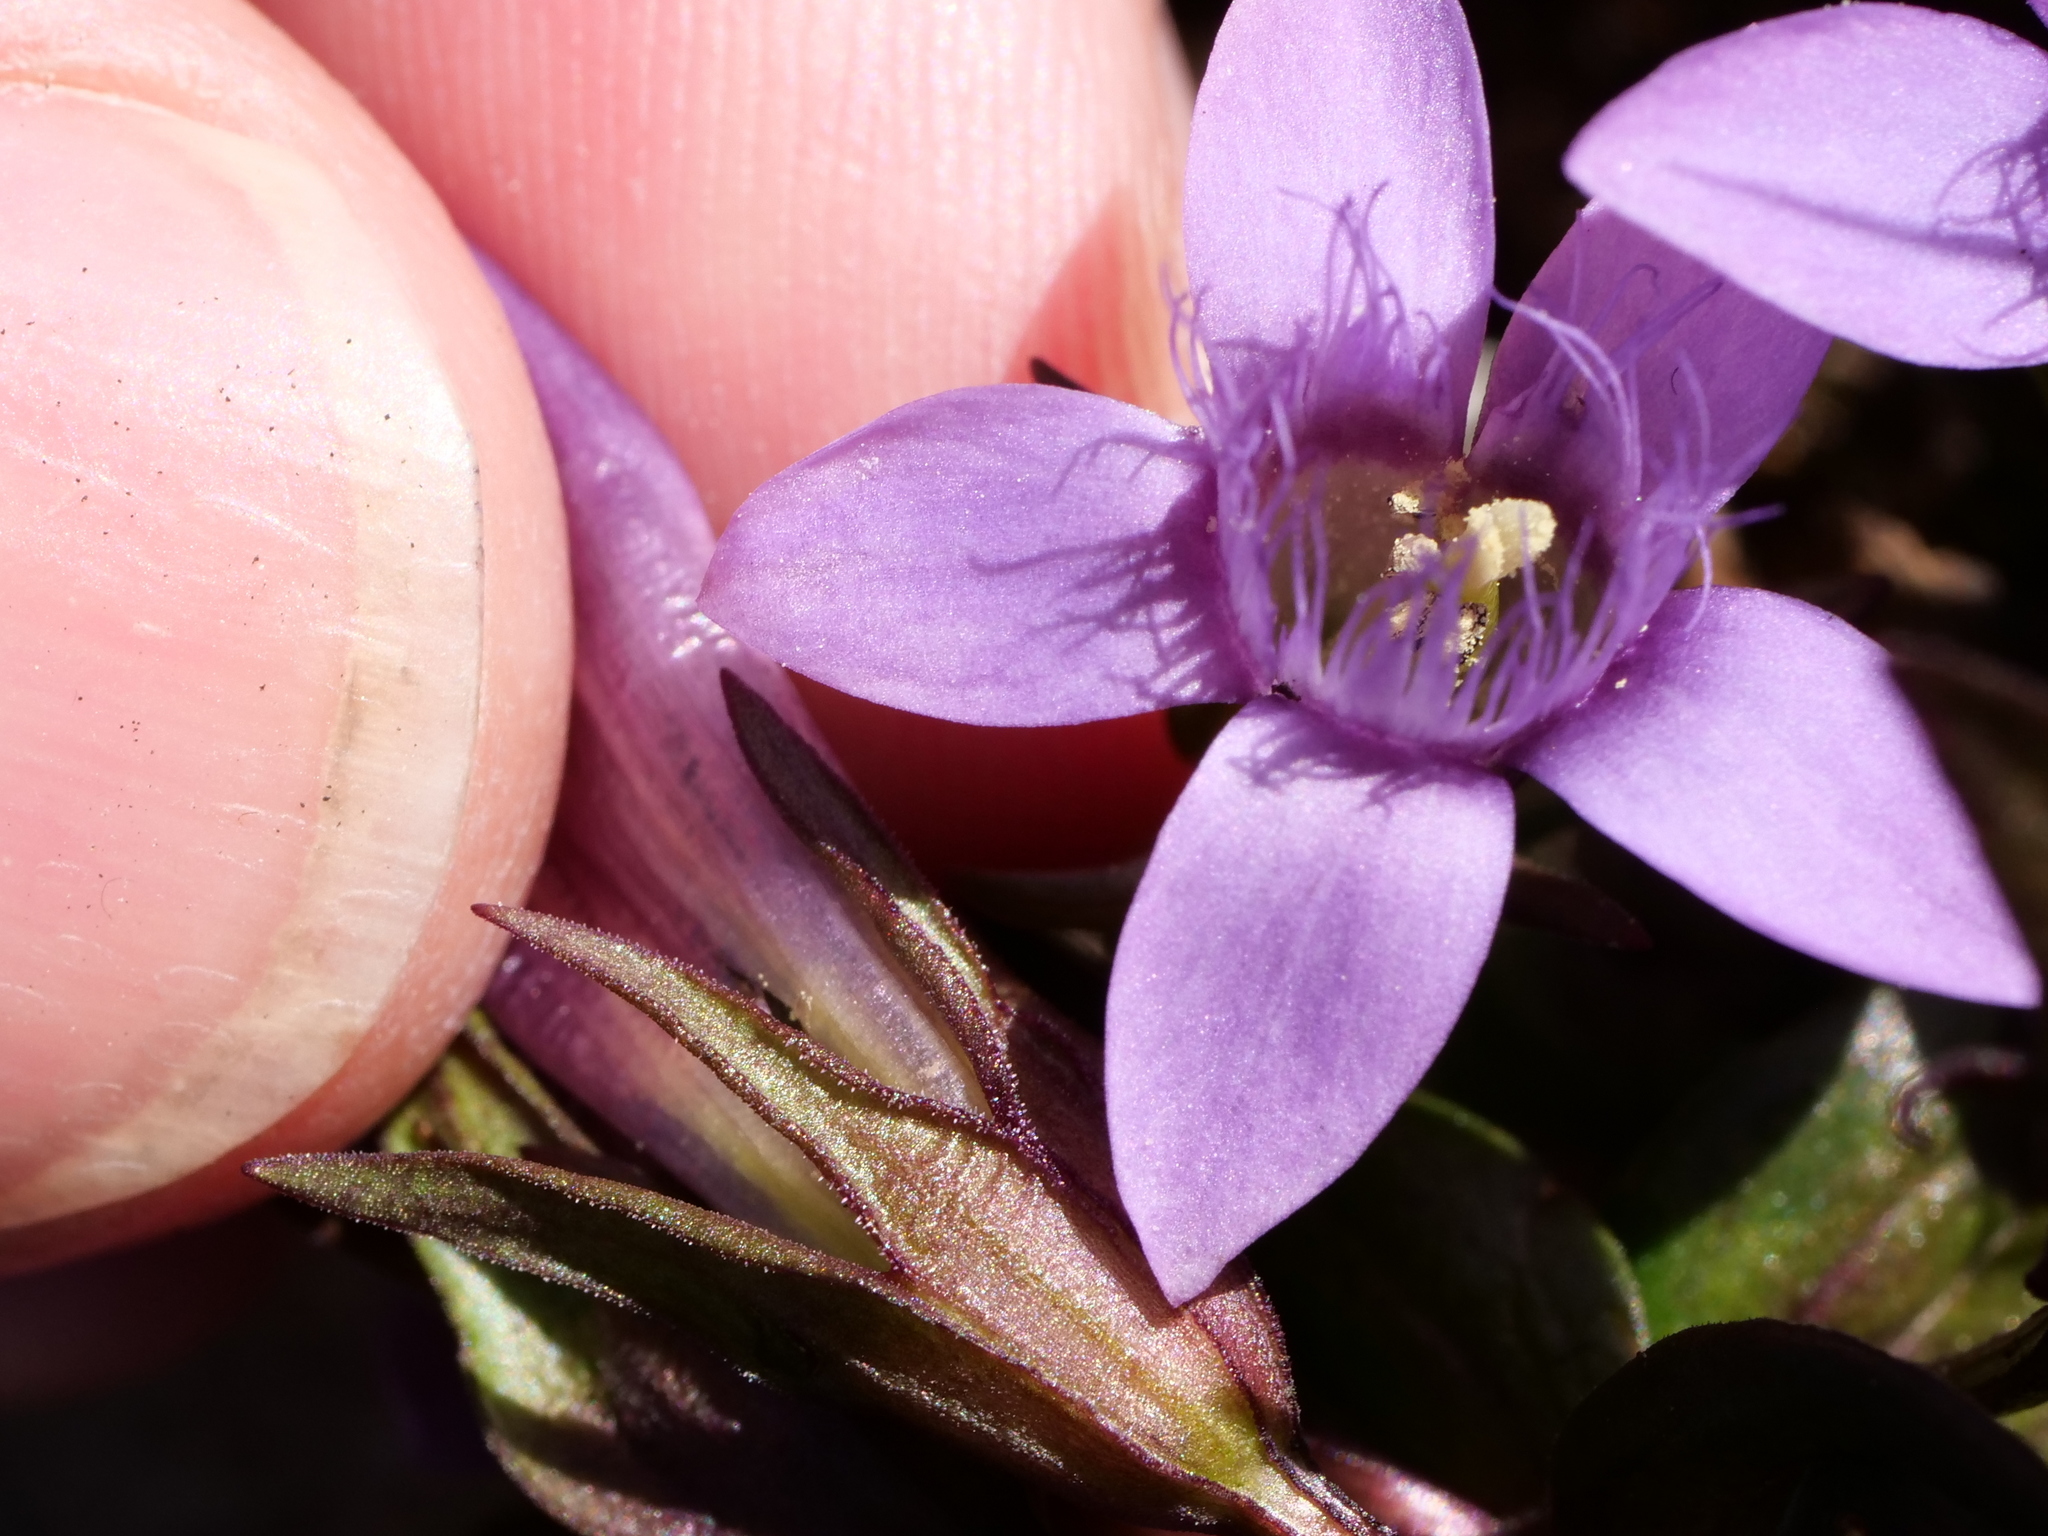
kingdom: Plantae
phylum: Tracheophyta
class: Magnoliopsida
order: Gentianales
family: Gentianaceae
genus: Gentianella
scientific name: Gentianella obtusifolia
